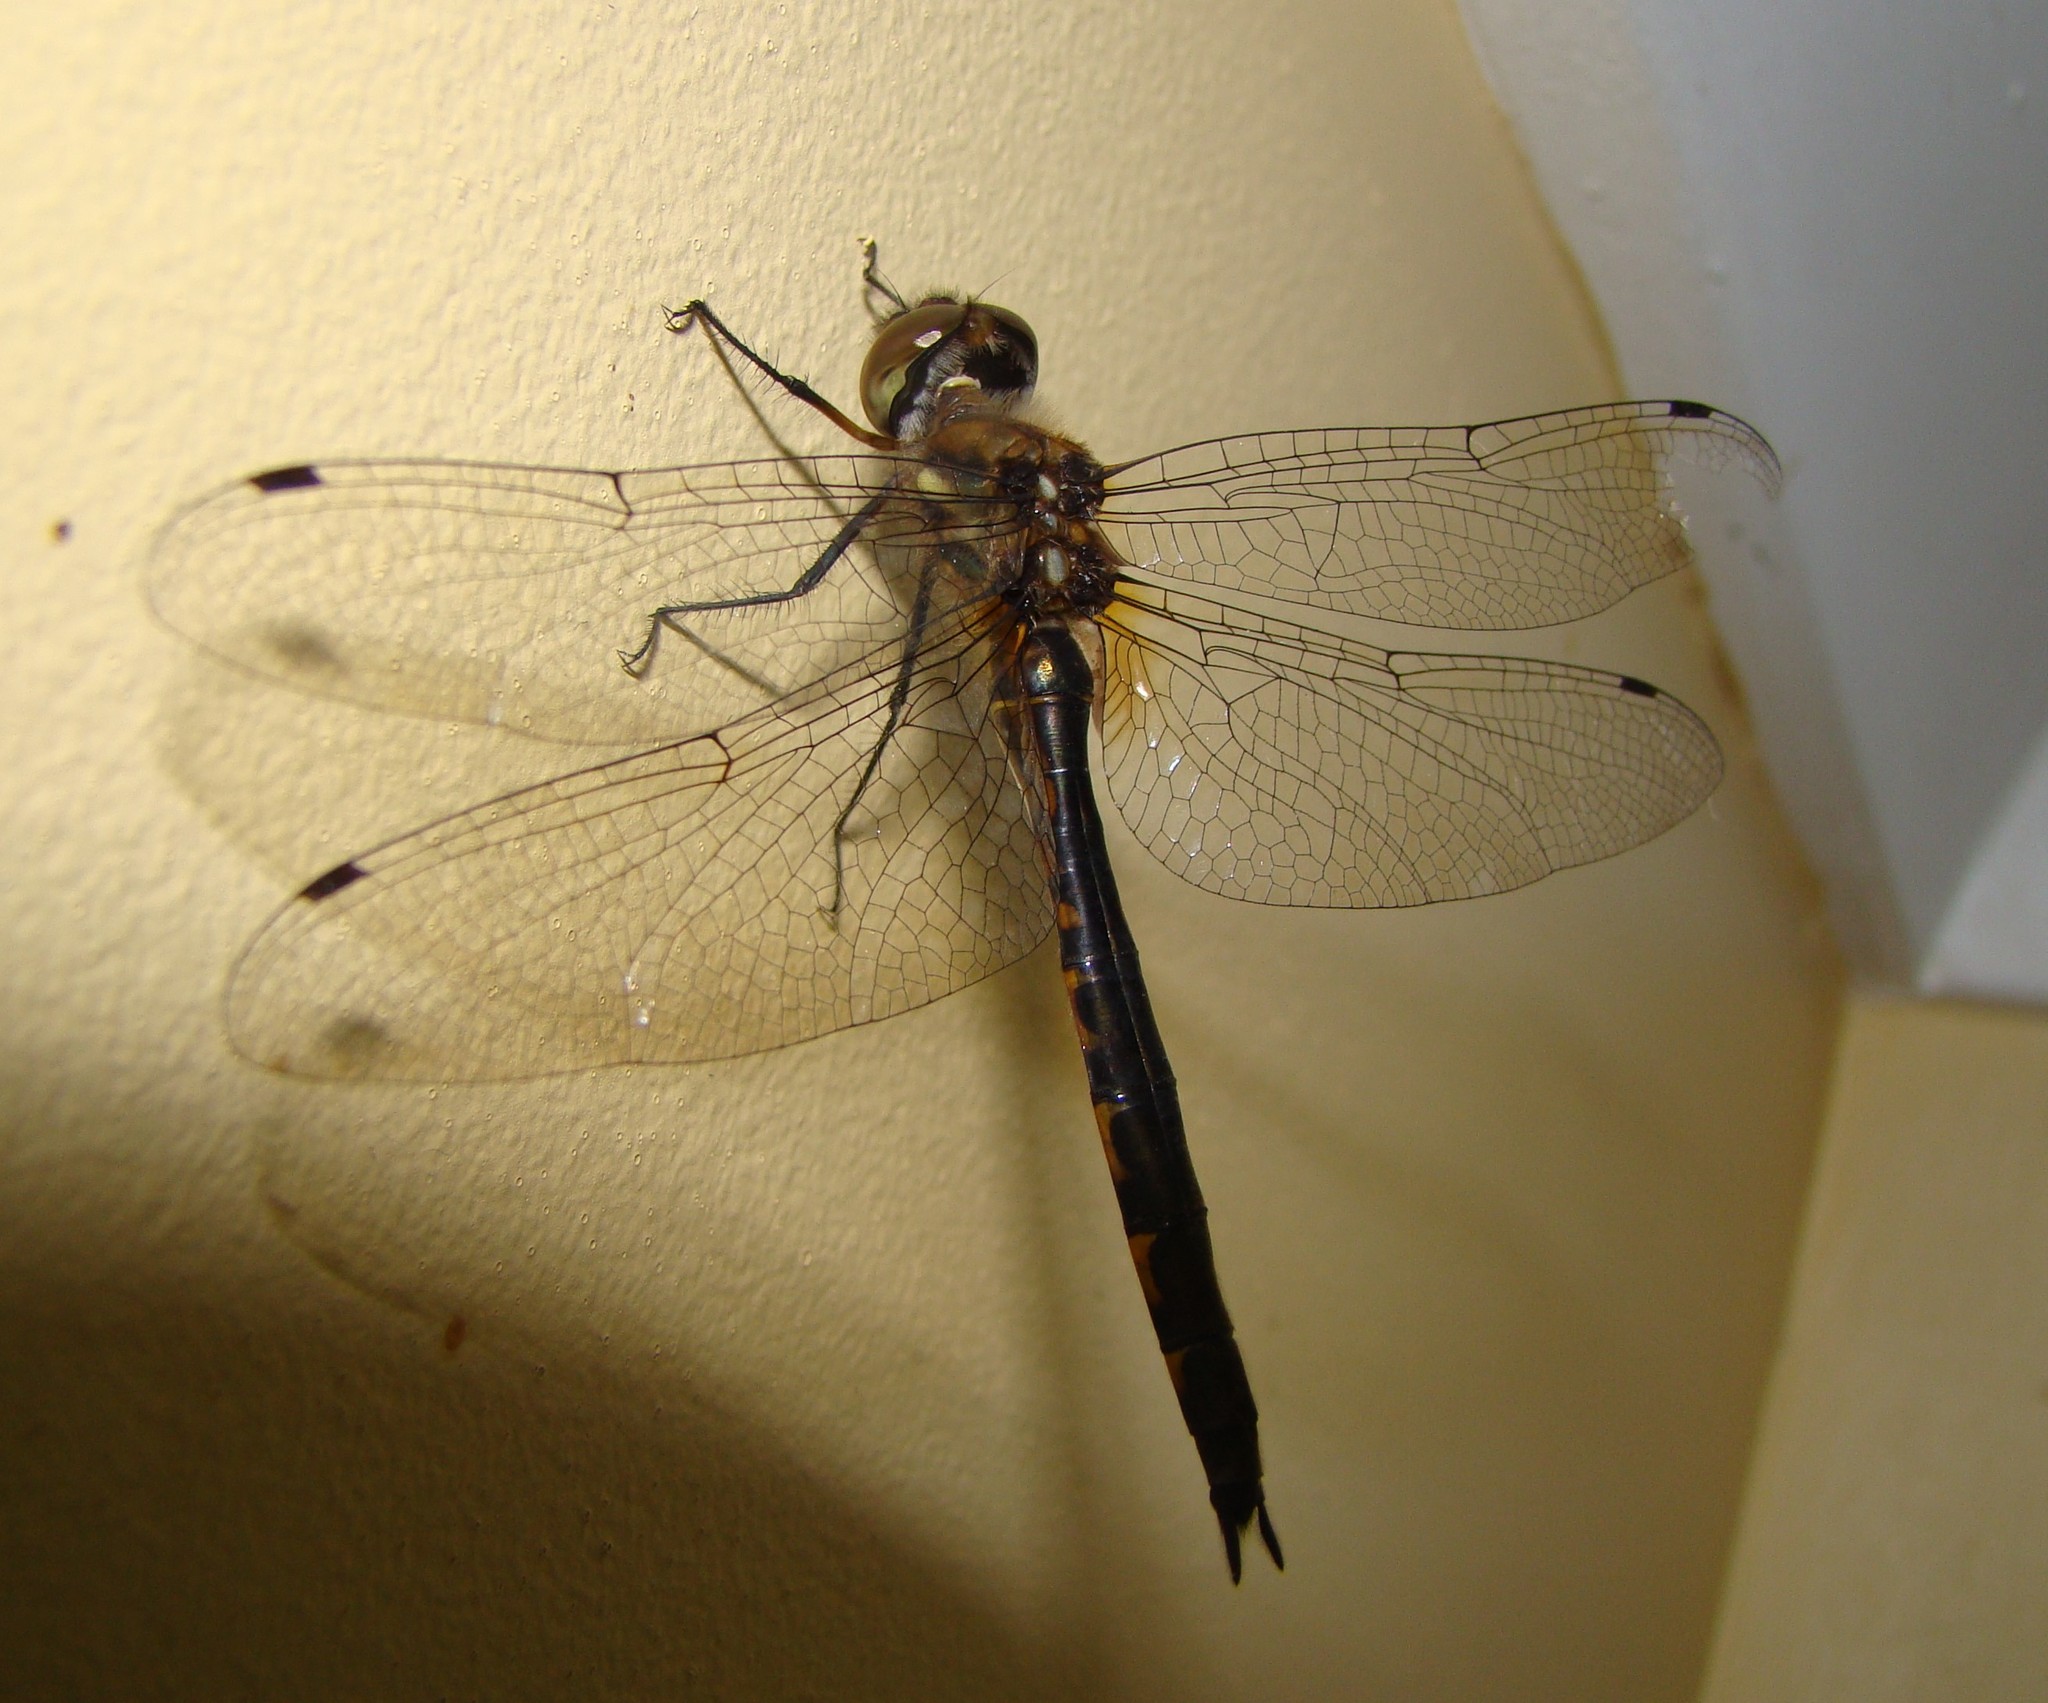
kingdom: Animalia
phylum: Arthropoda
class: Insecta
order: Odonata
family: Corduliidae
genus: Hemicordulia
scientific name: Hemicordulia australiae
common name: Sentry dragonfly
